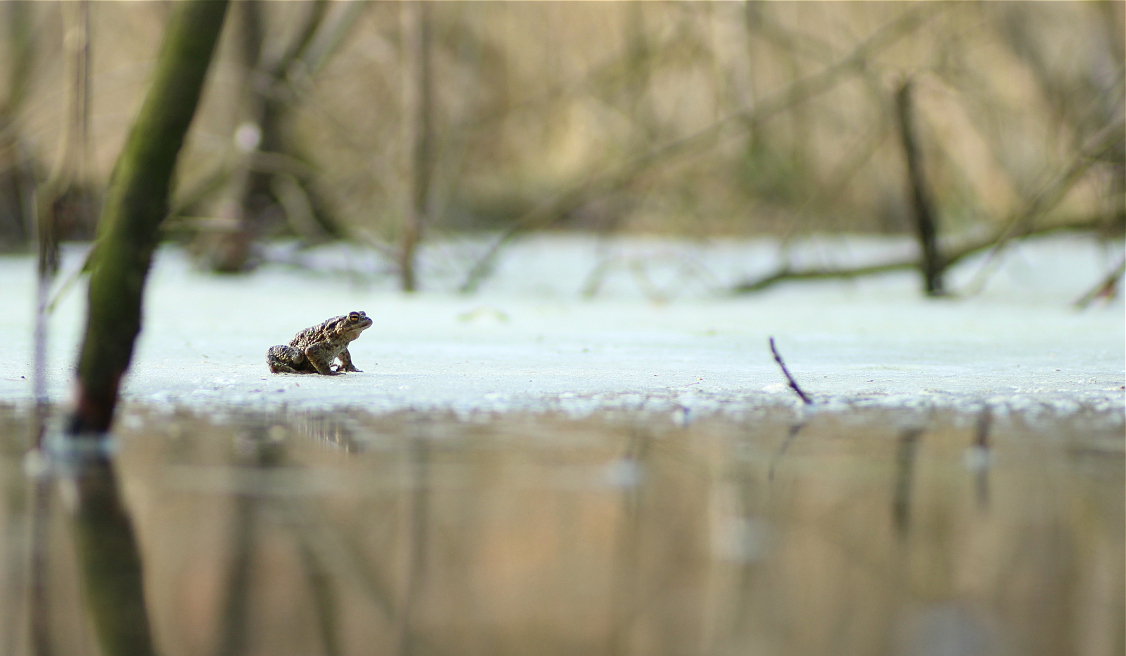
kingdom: Animalia
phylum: Chordata
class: Amphibia
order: Anura
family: Bufonidae
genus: Bufo
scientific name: Bufo bufo
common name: Common toad
